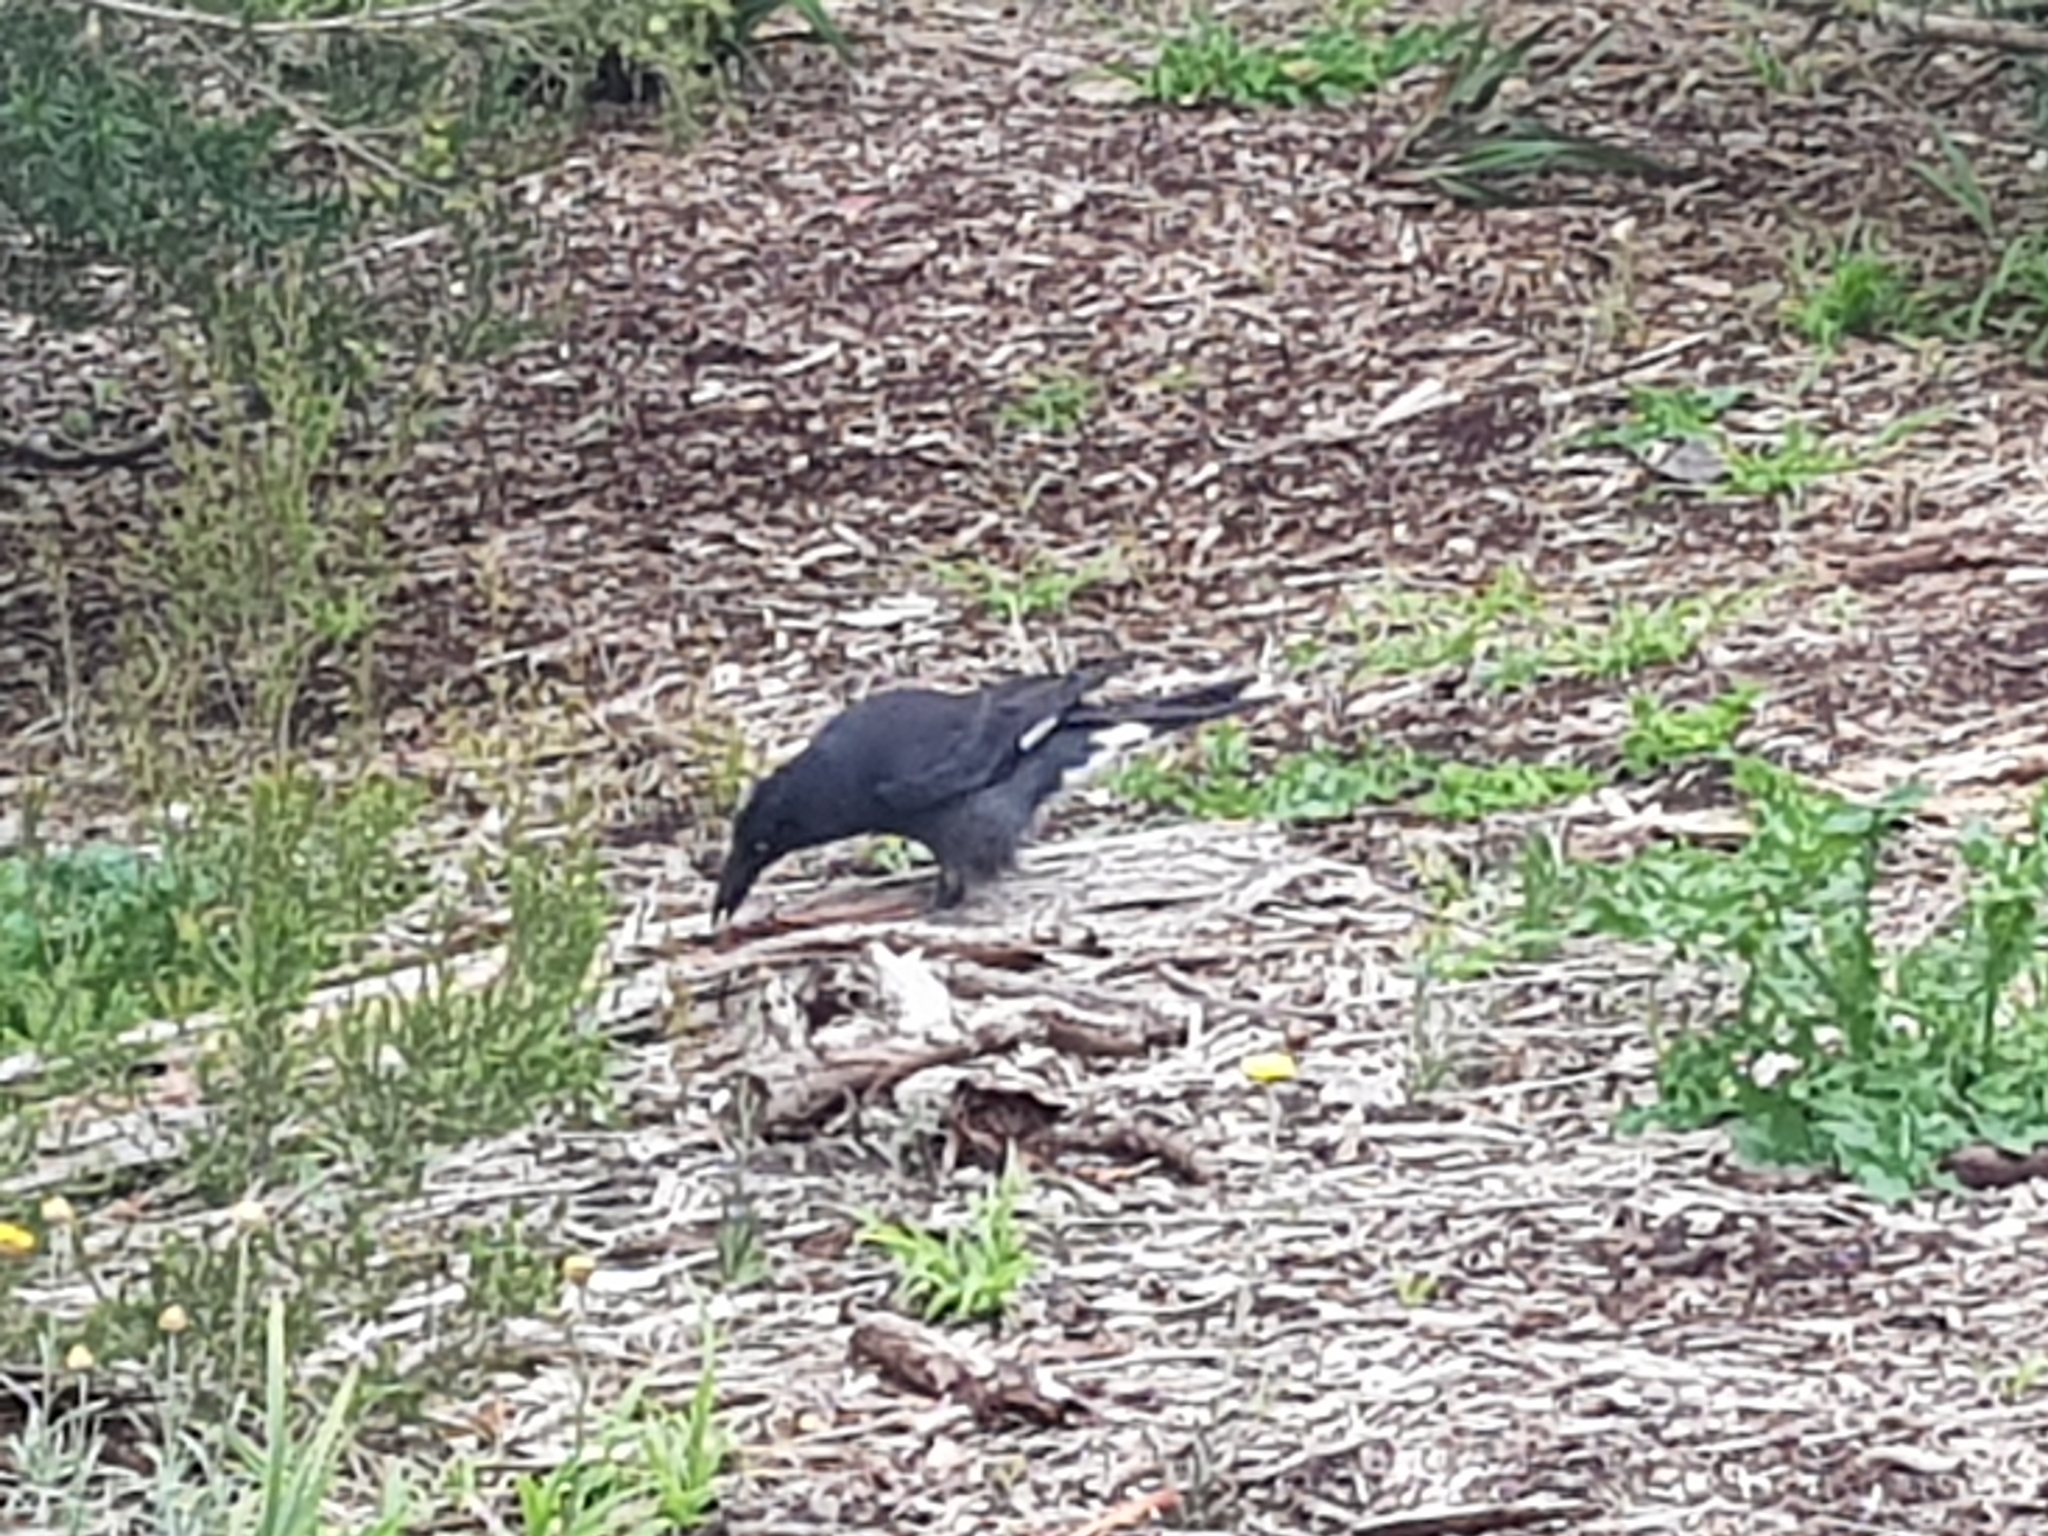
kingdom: Animalia
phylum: Chordata
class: Aves
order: Passeriformes
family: Cracticidae
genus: Strepera
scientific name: Strepera graculina
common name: Pied currawong
